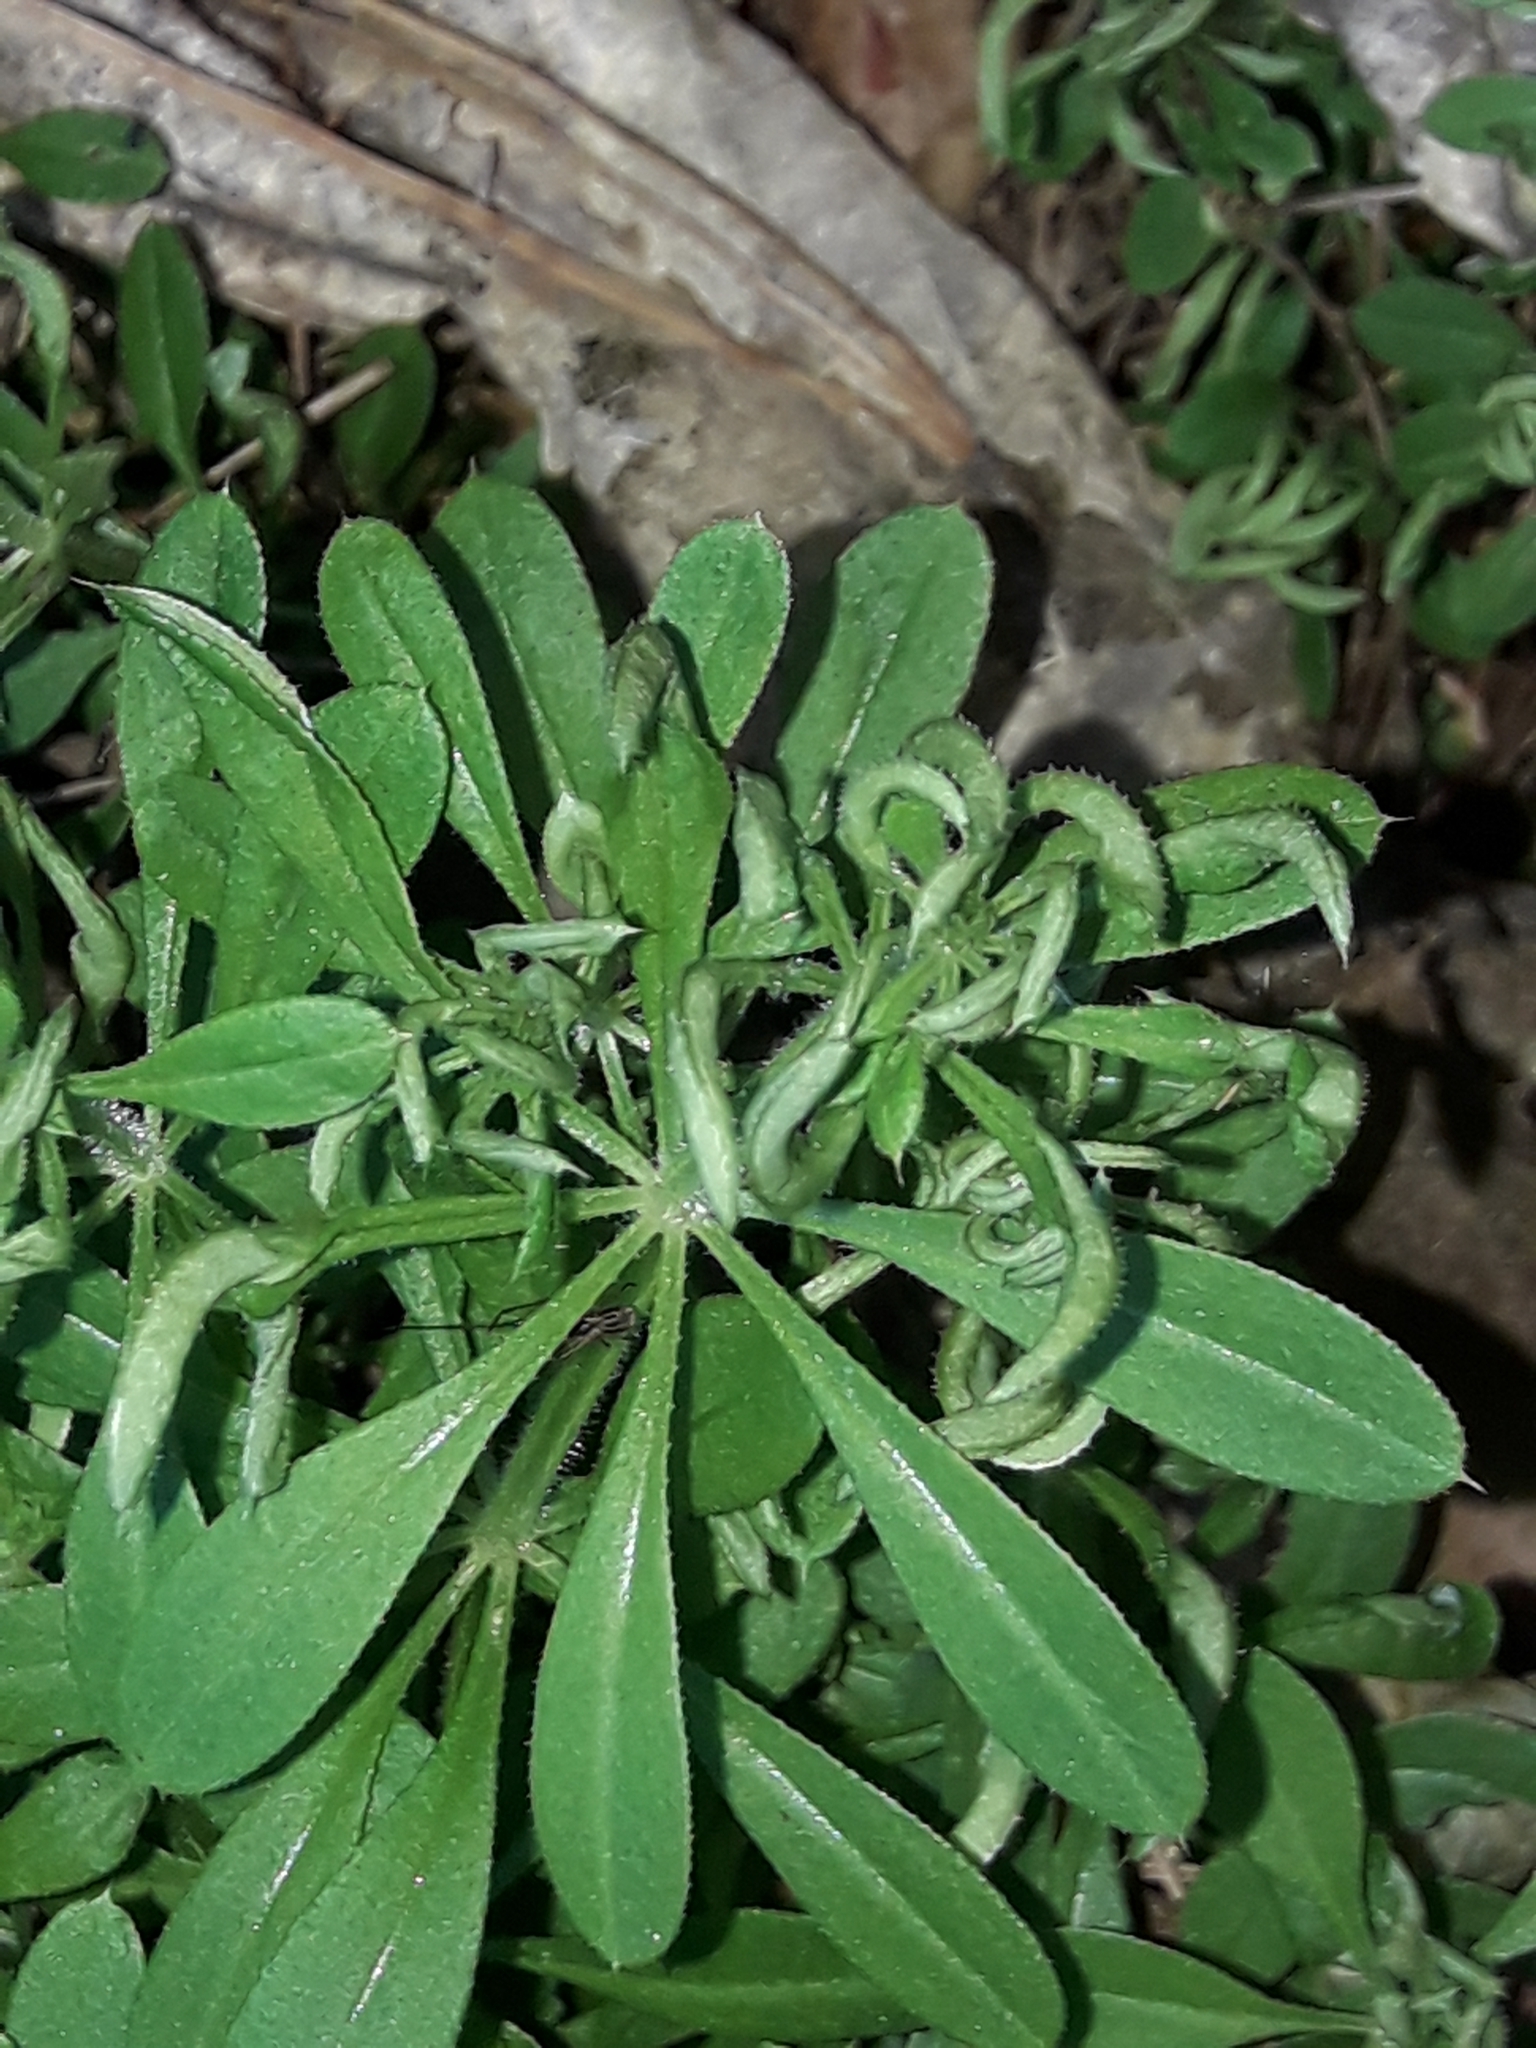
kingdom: Animalia
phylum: Arthropoda
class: Arachnida
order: Trombidiformes
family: Eriophyidae
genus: Cecidophyes
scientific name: Cecidophyes rouhollahi
